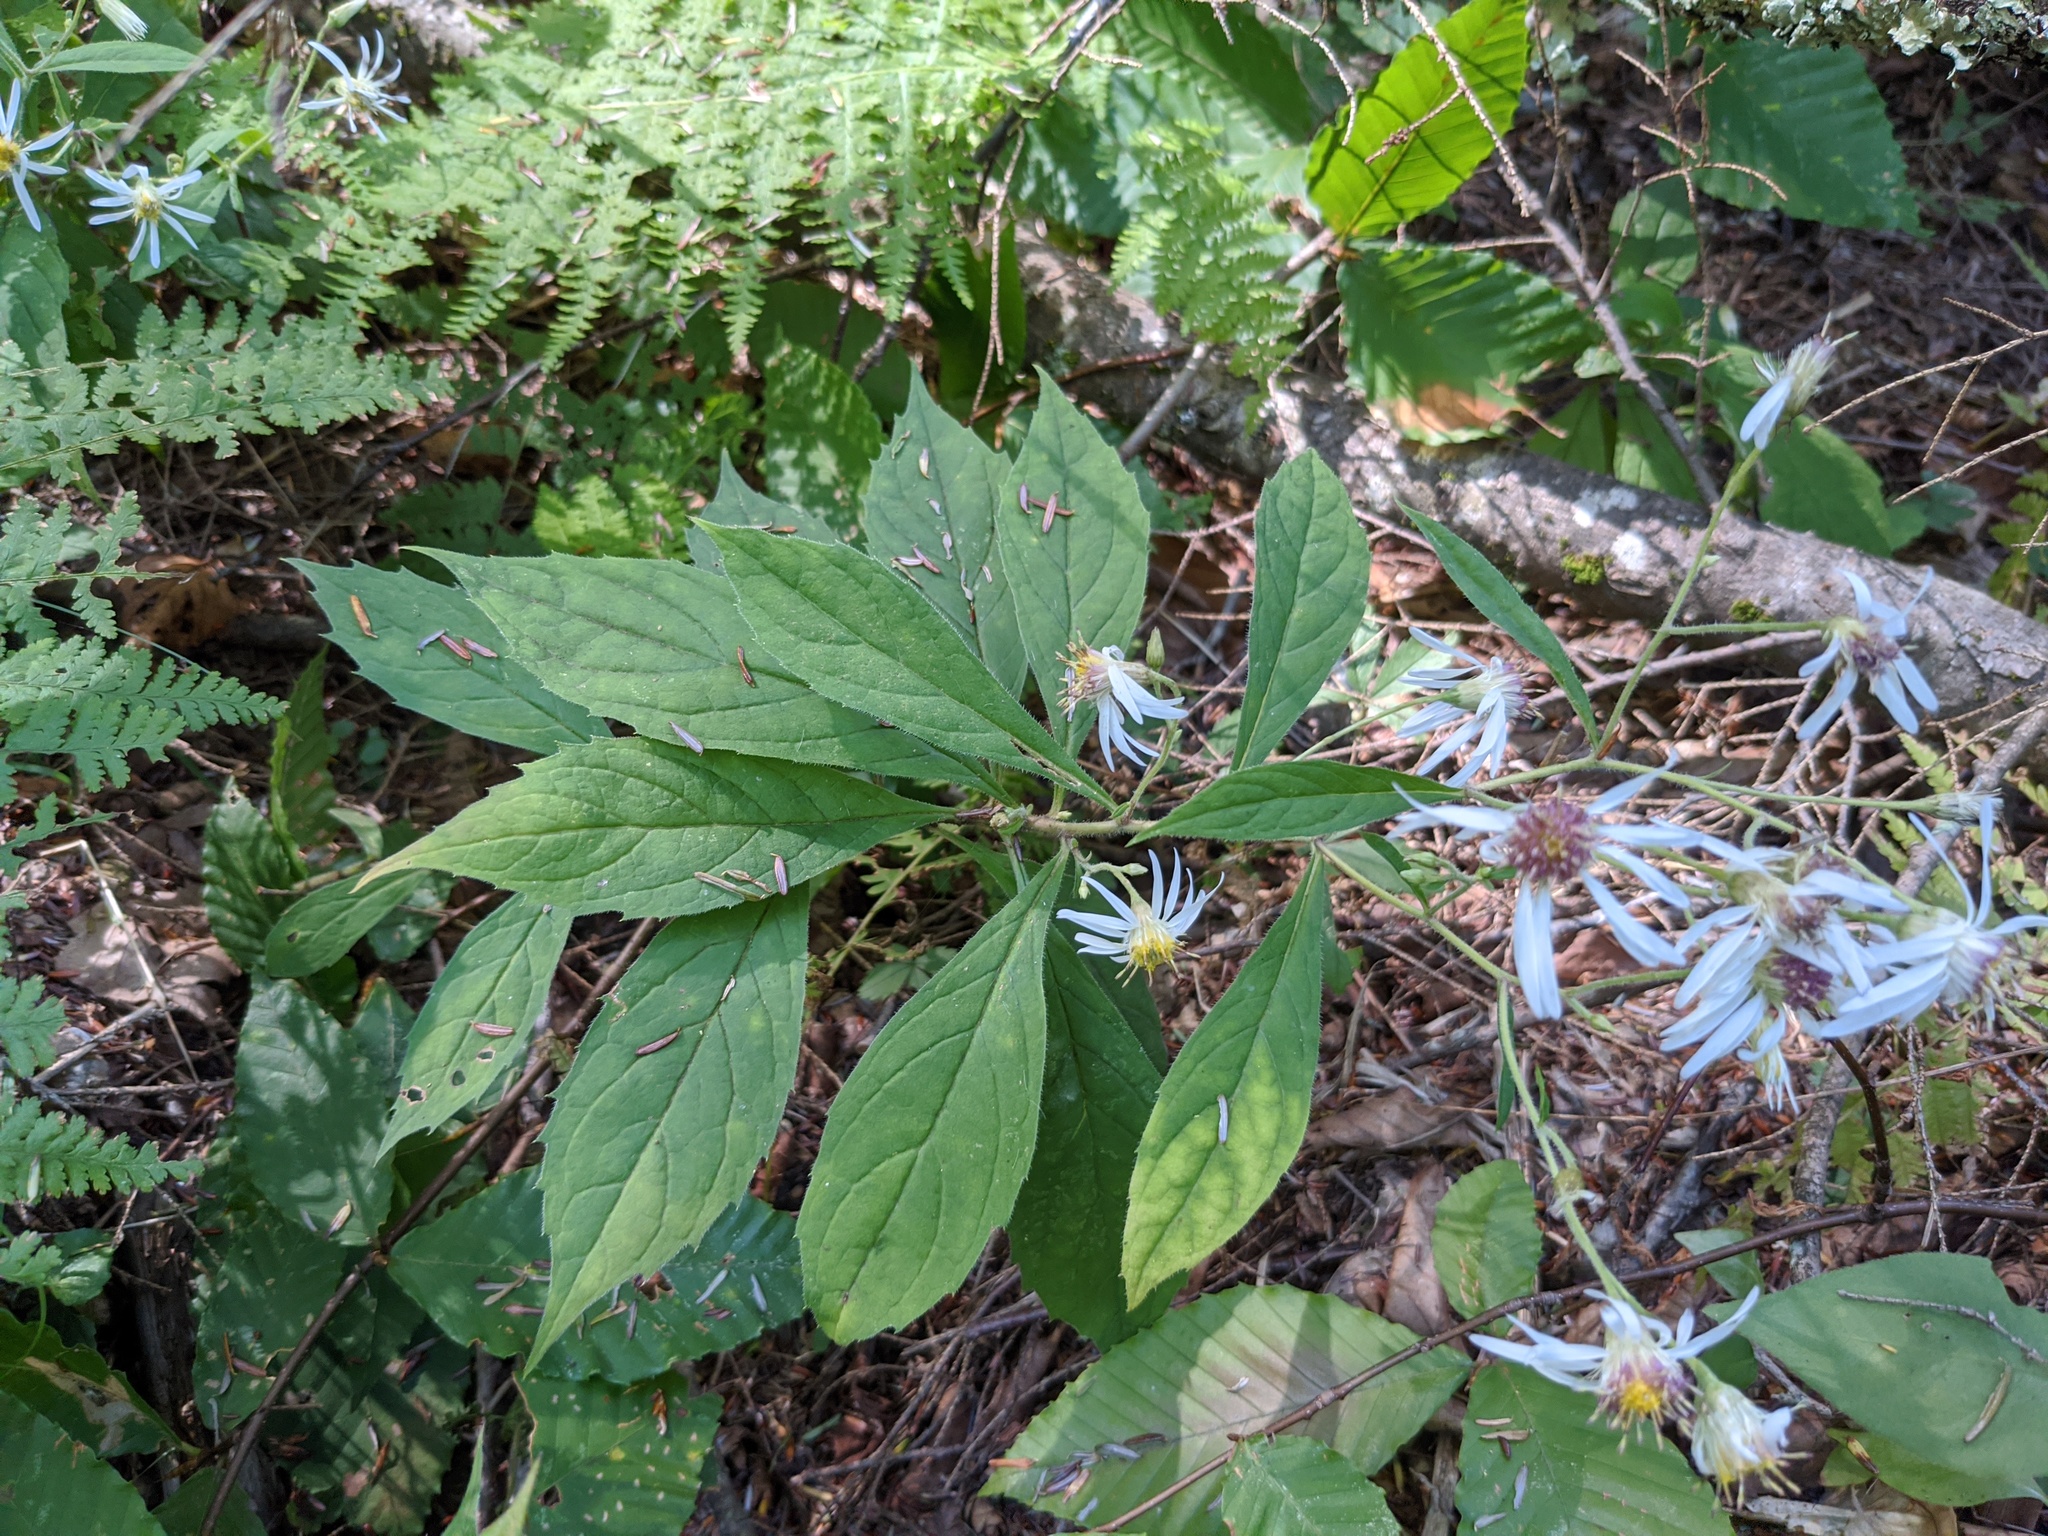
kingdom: Plantae
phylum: Tracheophyta
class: Magnoliopsida
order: Asterales
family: Asteraceae
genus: Oclemena
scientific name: Oclemena acuminata
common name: Mountain aster
